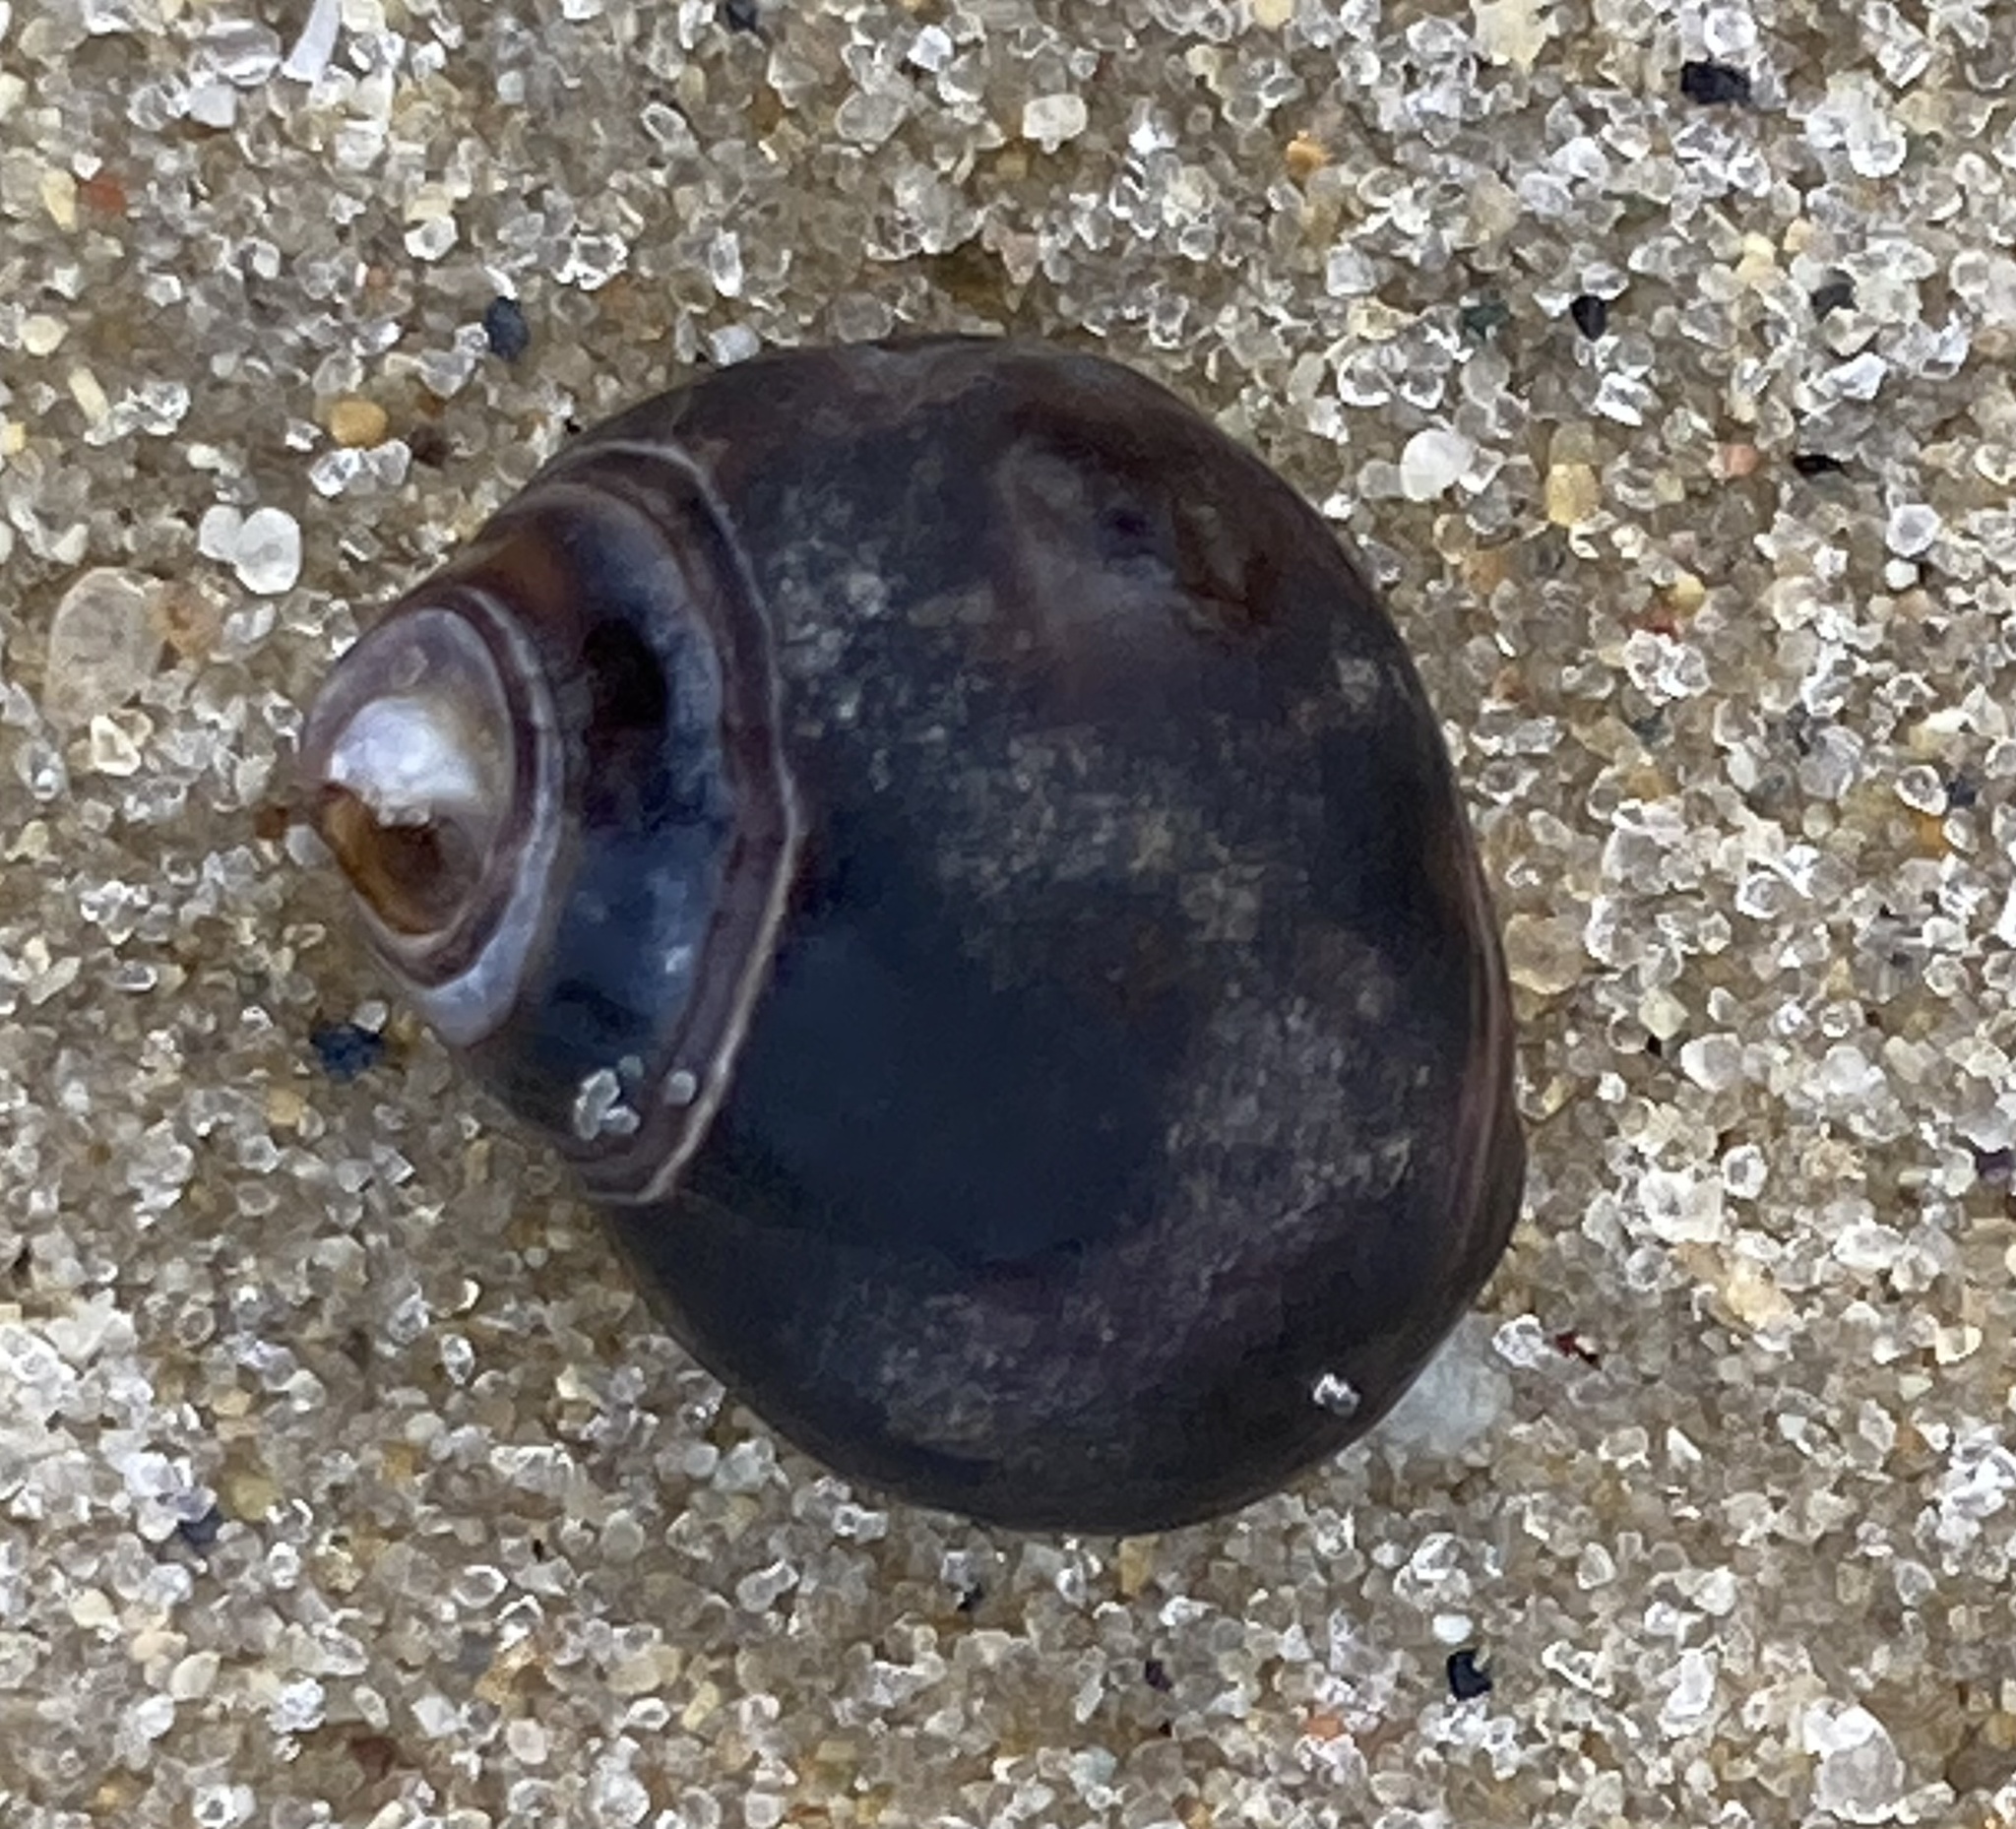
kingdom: Animalia
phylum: Mollusca
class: Gastropoda
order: Littorinimorpha
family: Littorinidae
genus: Littorina
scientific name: Littorina littorea
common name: Common periwinkle
